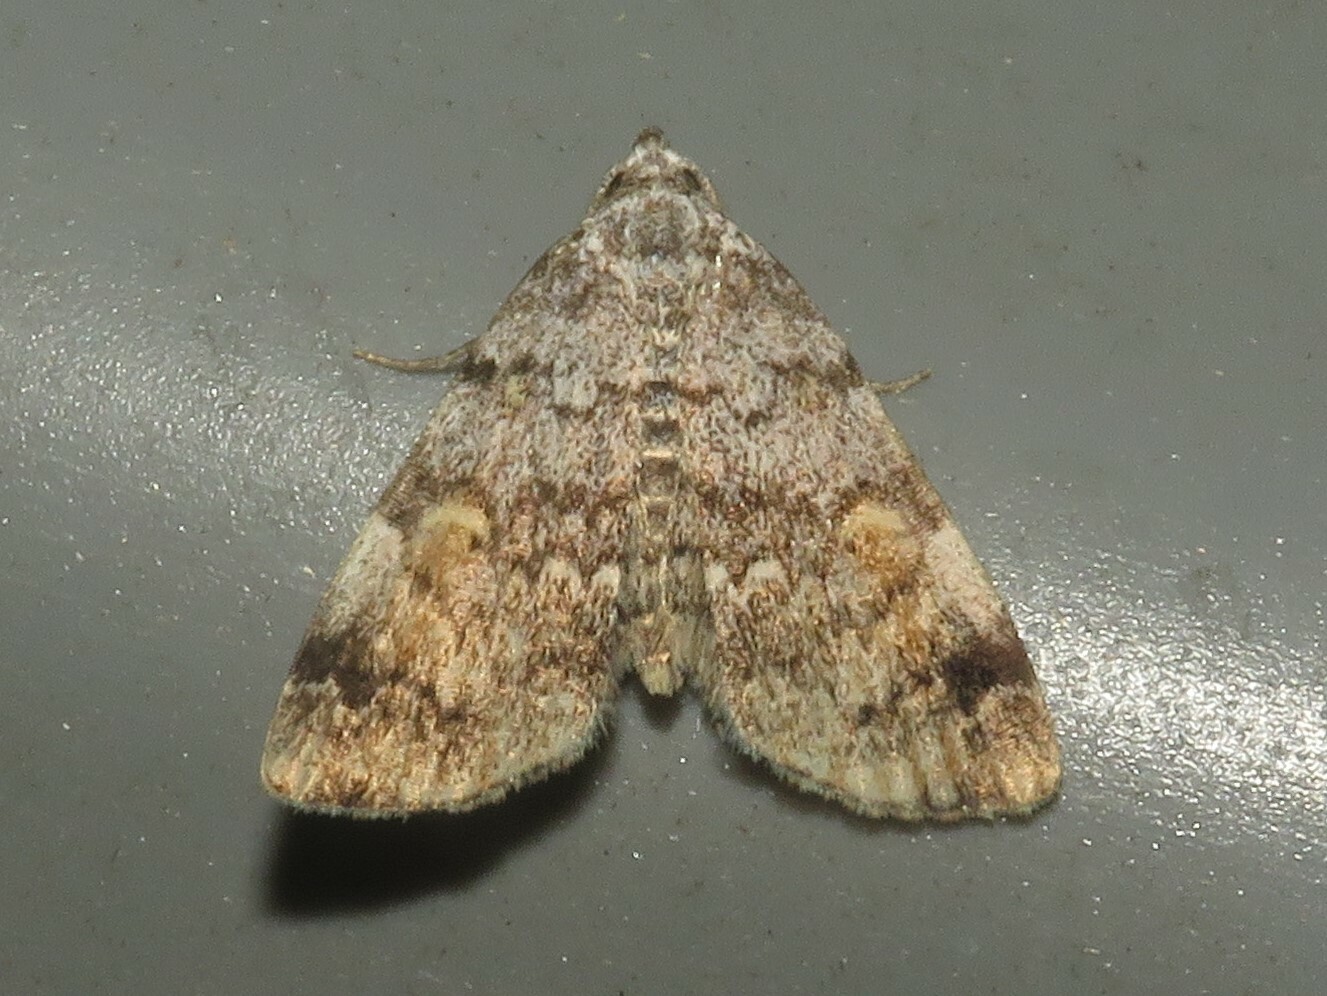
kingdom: Animalia
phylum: Arthropoda
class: Insecta
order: Lepidoptera
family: Erebidae
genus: Idia
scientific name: Idia americalis
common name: American idia moth
